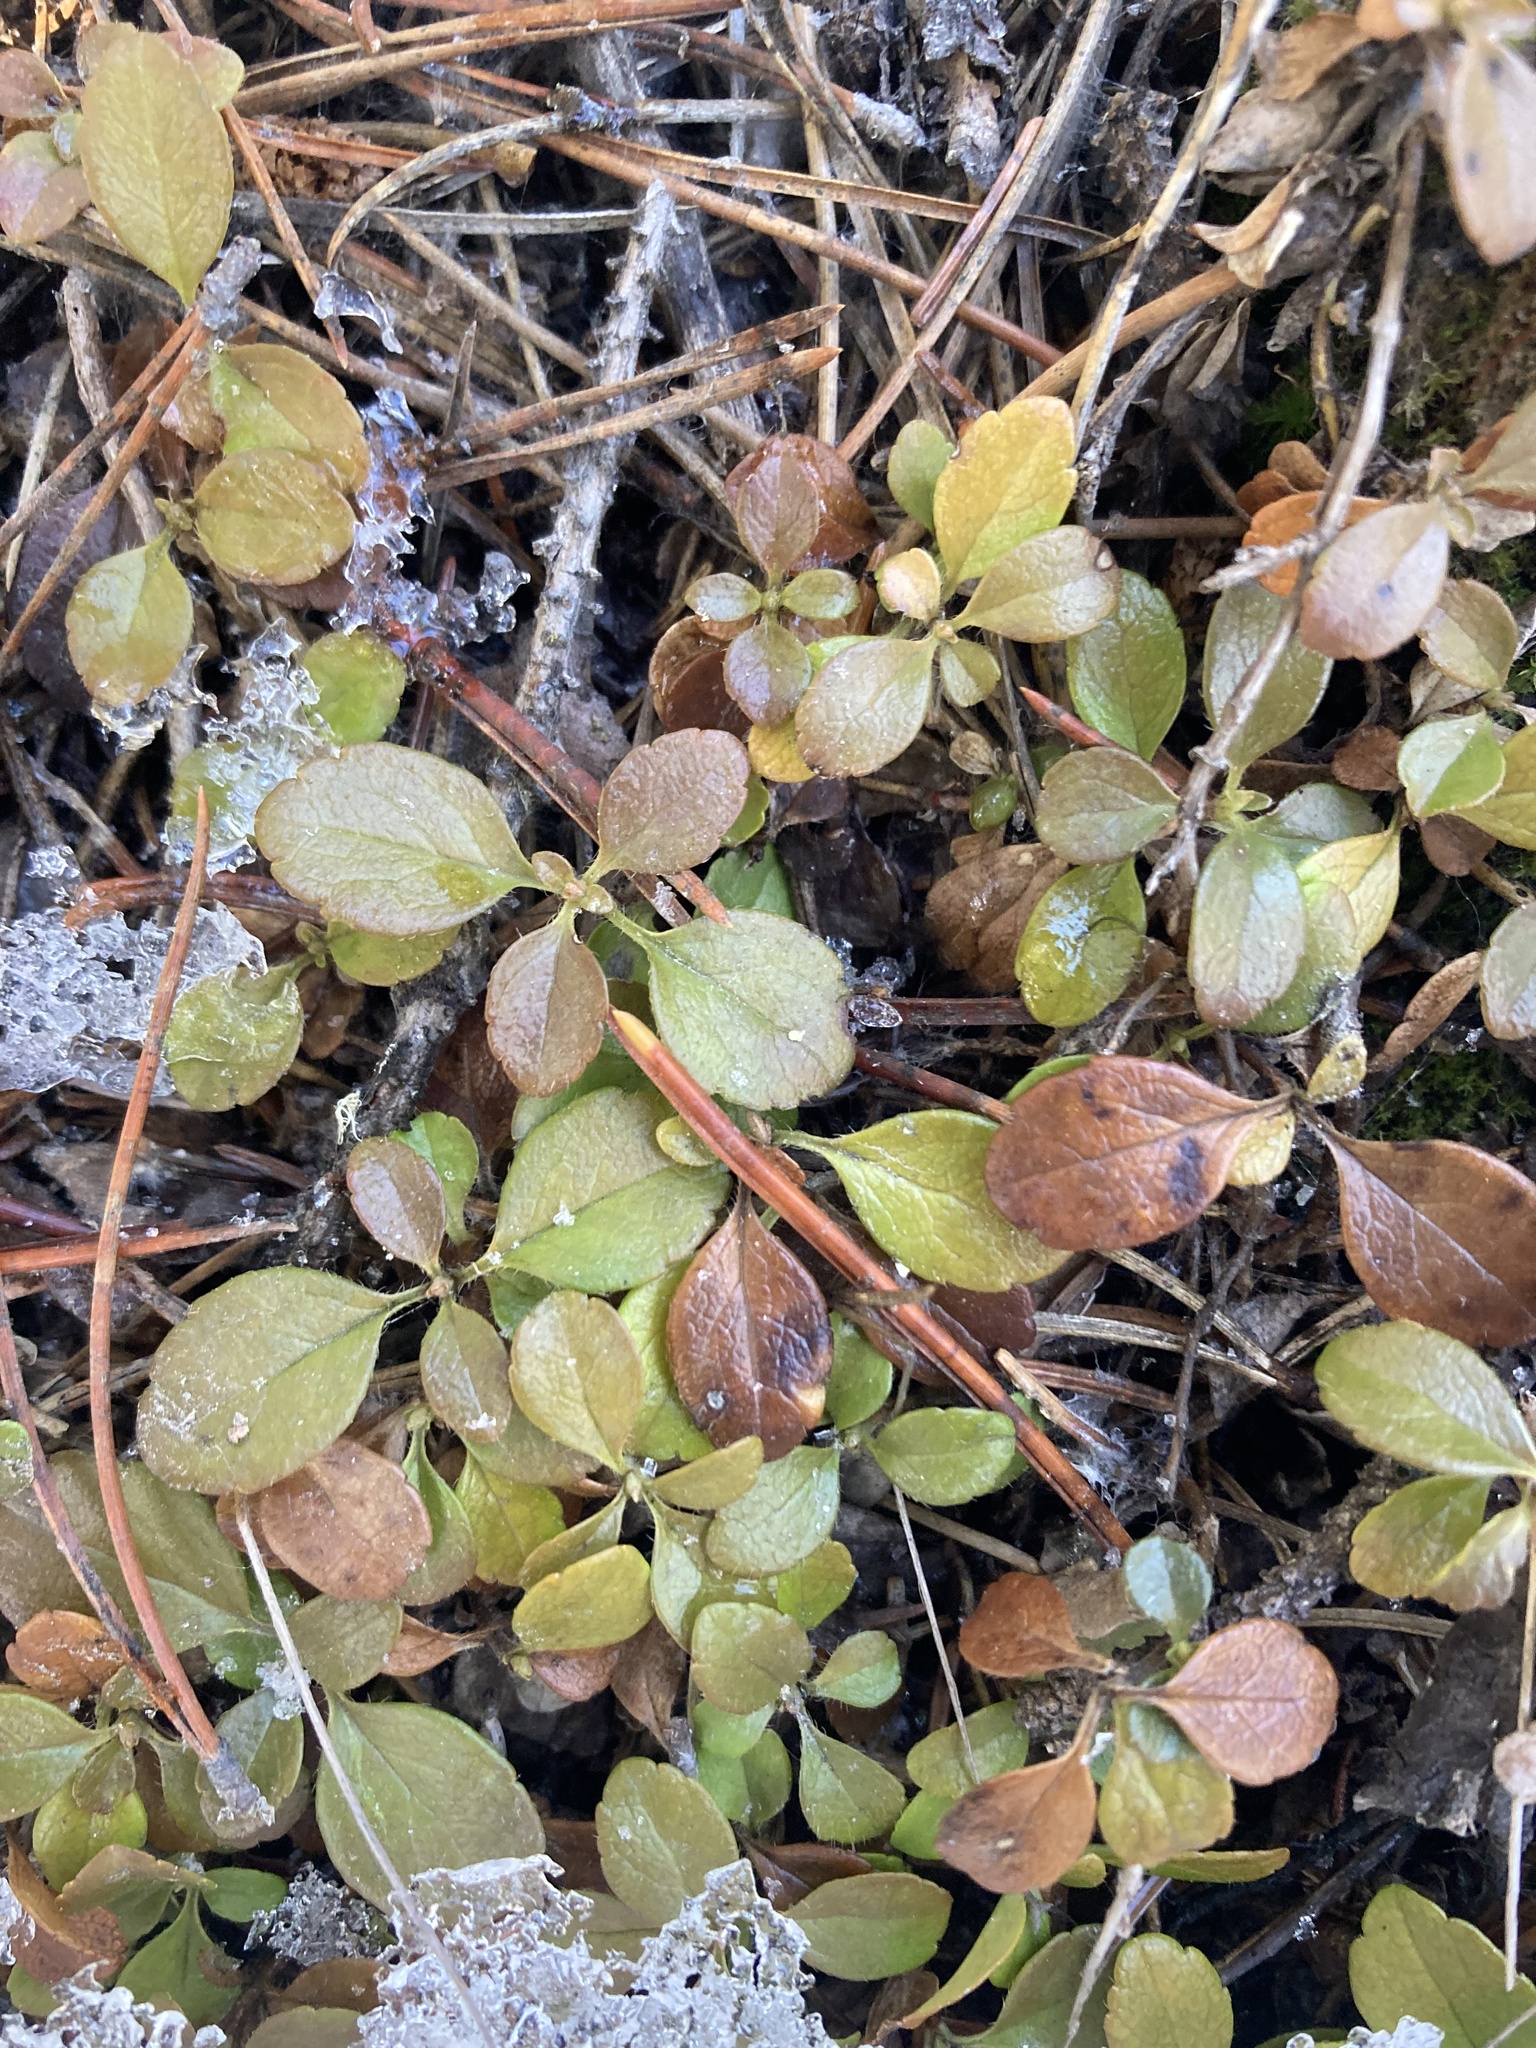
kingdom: Plantae
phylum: Tracheophyta
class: Magnoliopsida
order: Dipsacales
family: Caprifoliaceae
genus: Linnaea
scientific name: Linnaea borealis
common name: Twinflower
